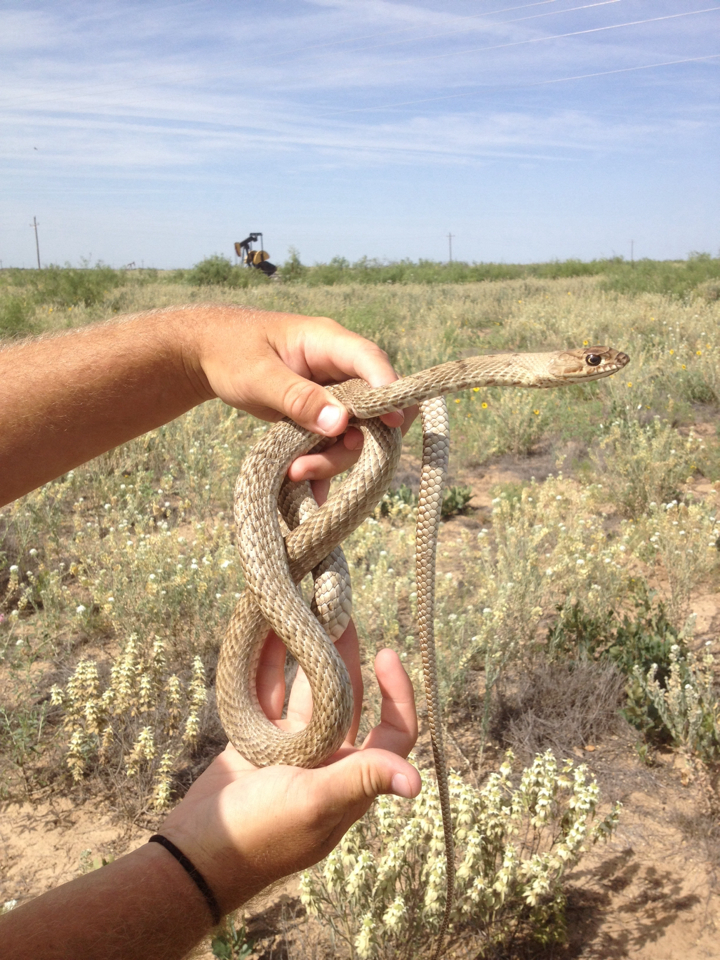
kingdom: Animalia
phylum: Chordata
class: Squamata
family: Colubridae
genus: Masticophis
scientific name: Masticophis flagellum
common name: Coachwhip
